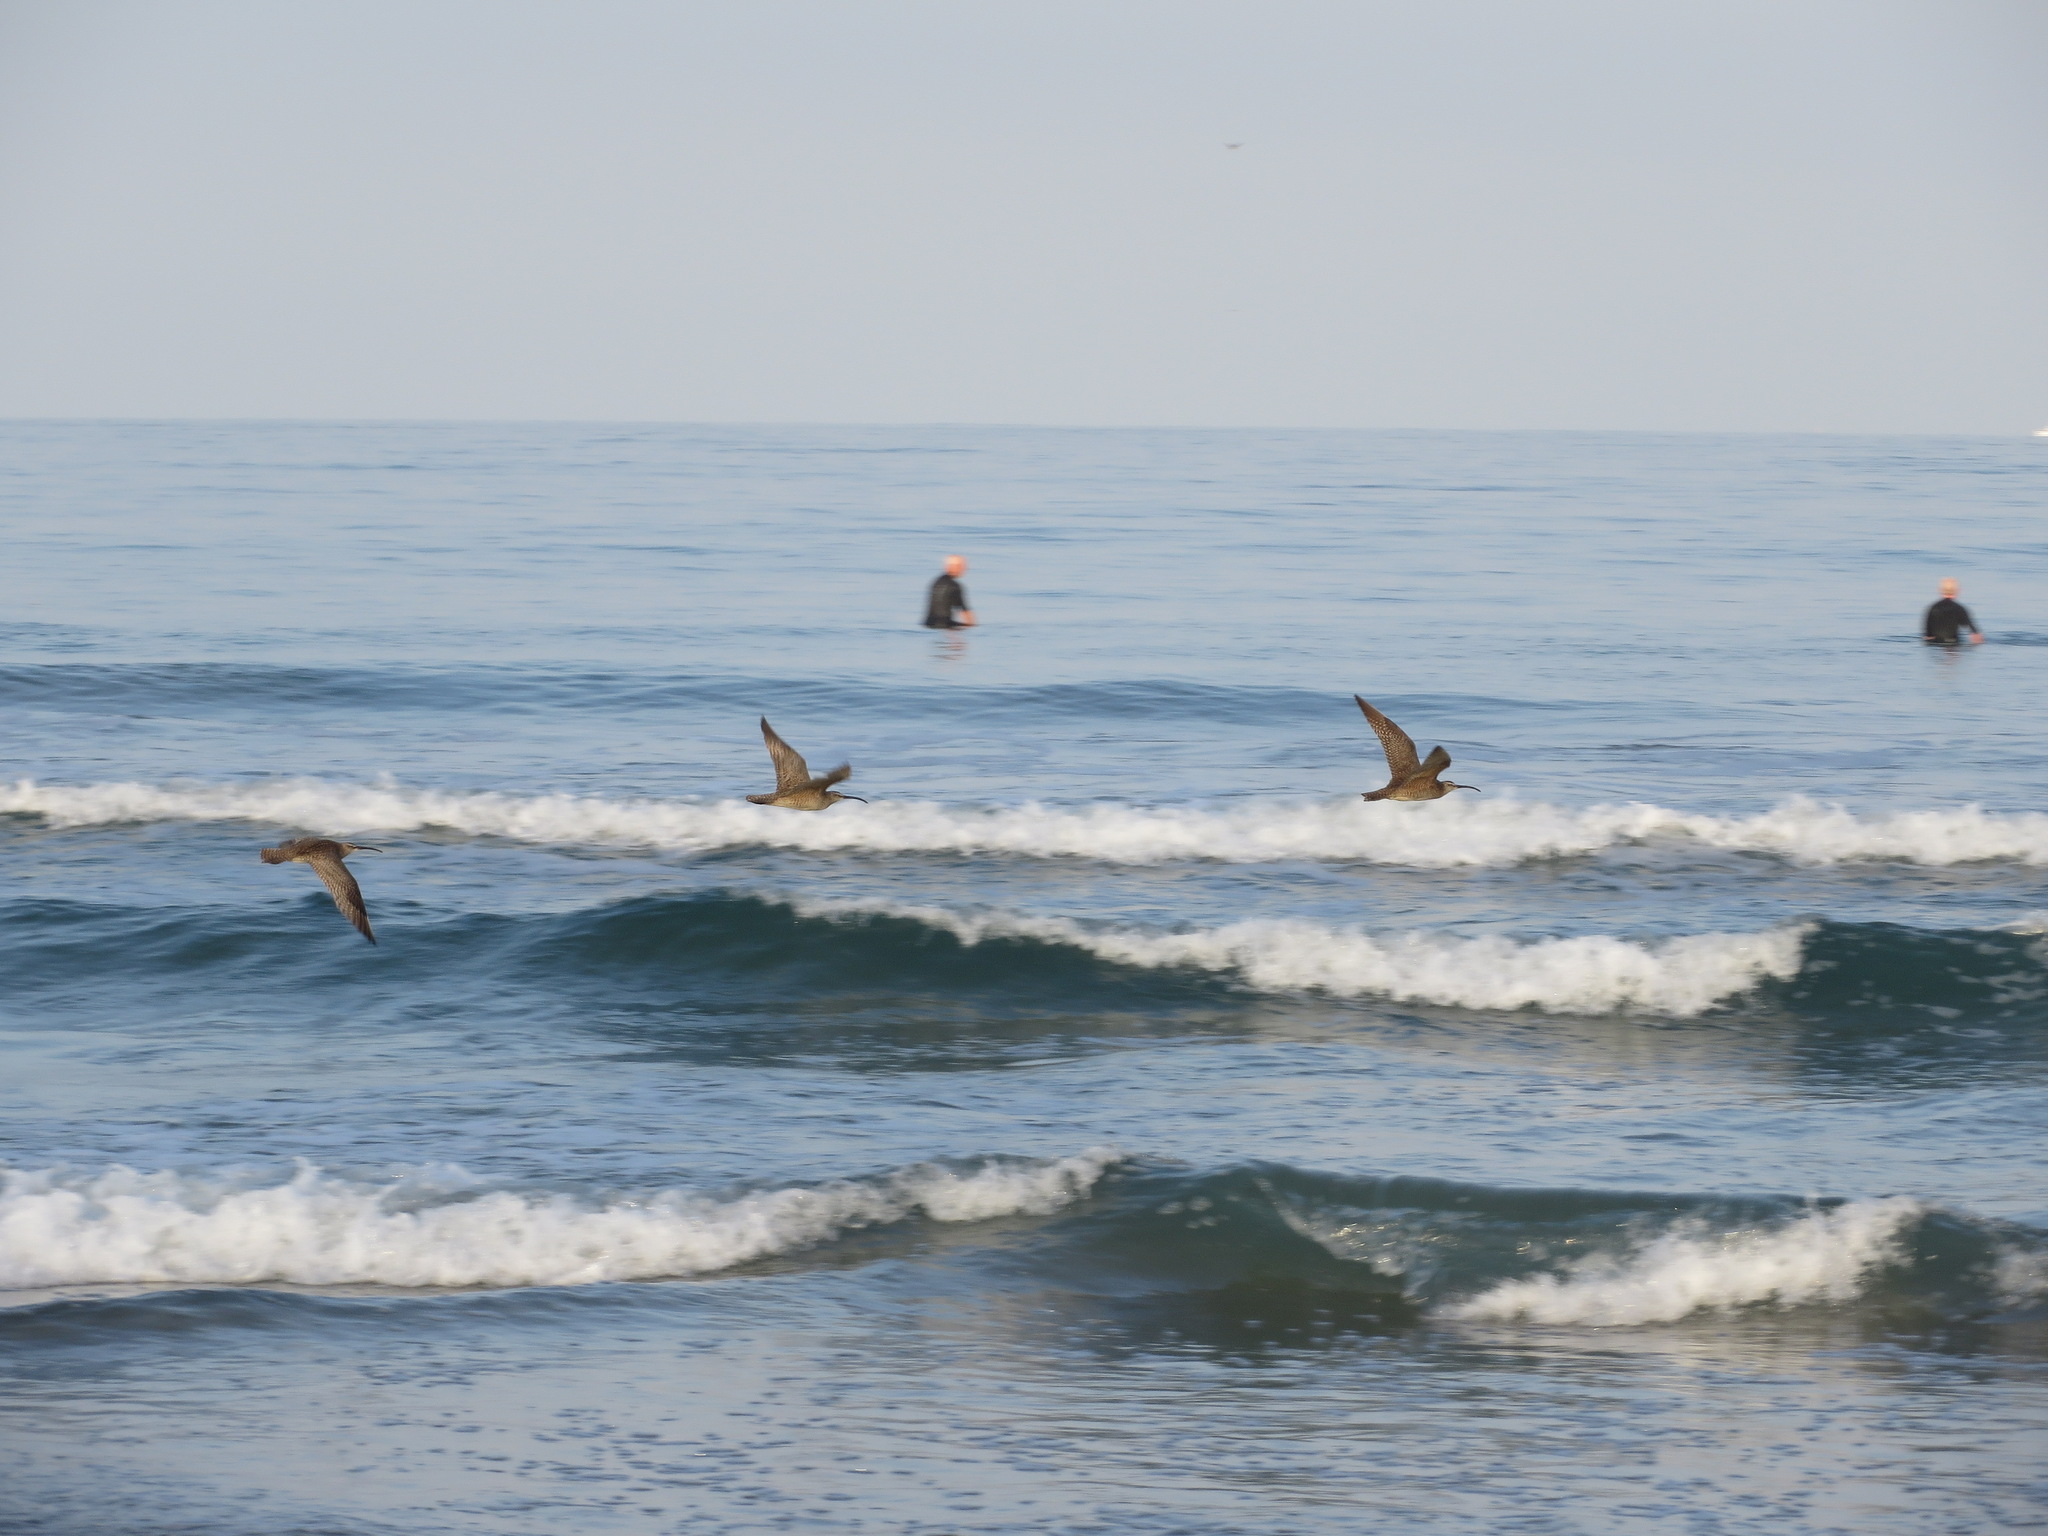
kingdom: Animalia
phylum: Chordata
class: Aves
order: Charadriiformes
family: Scolopacidae
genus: Numenius
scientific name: Numenius phaeopus
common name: Whimbrel
